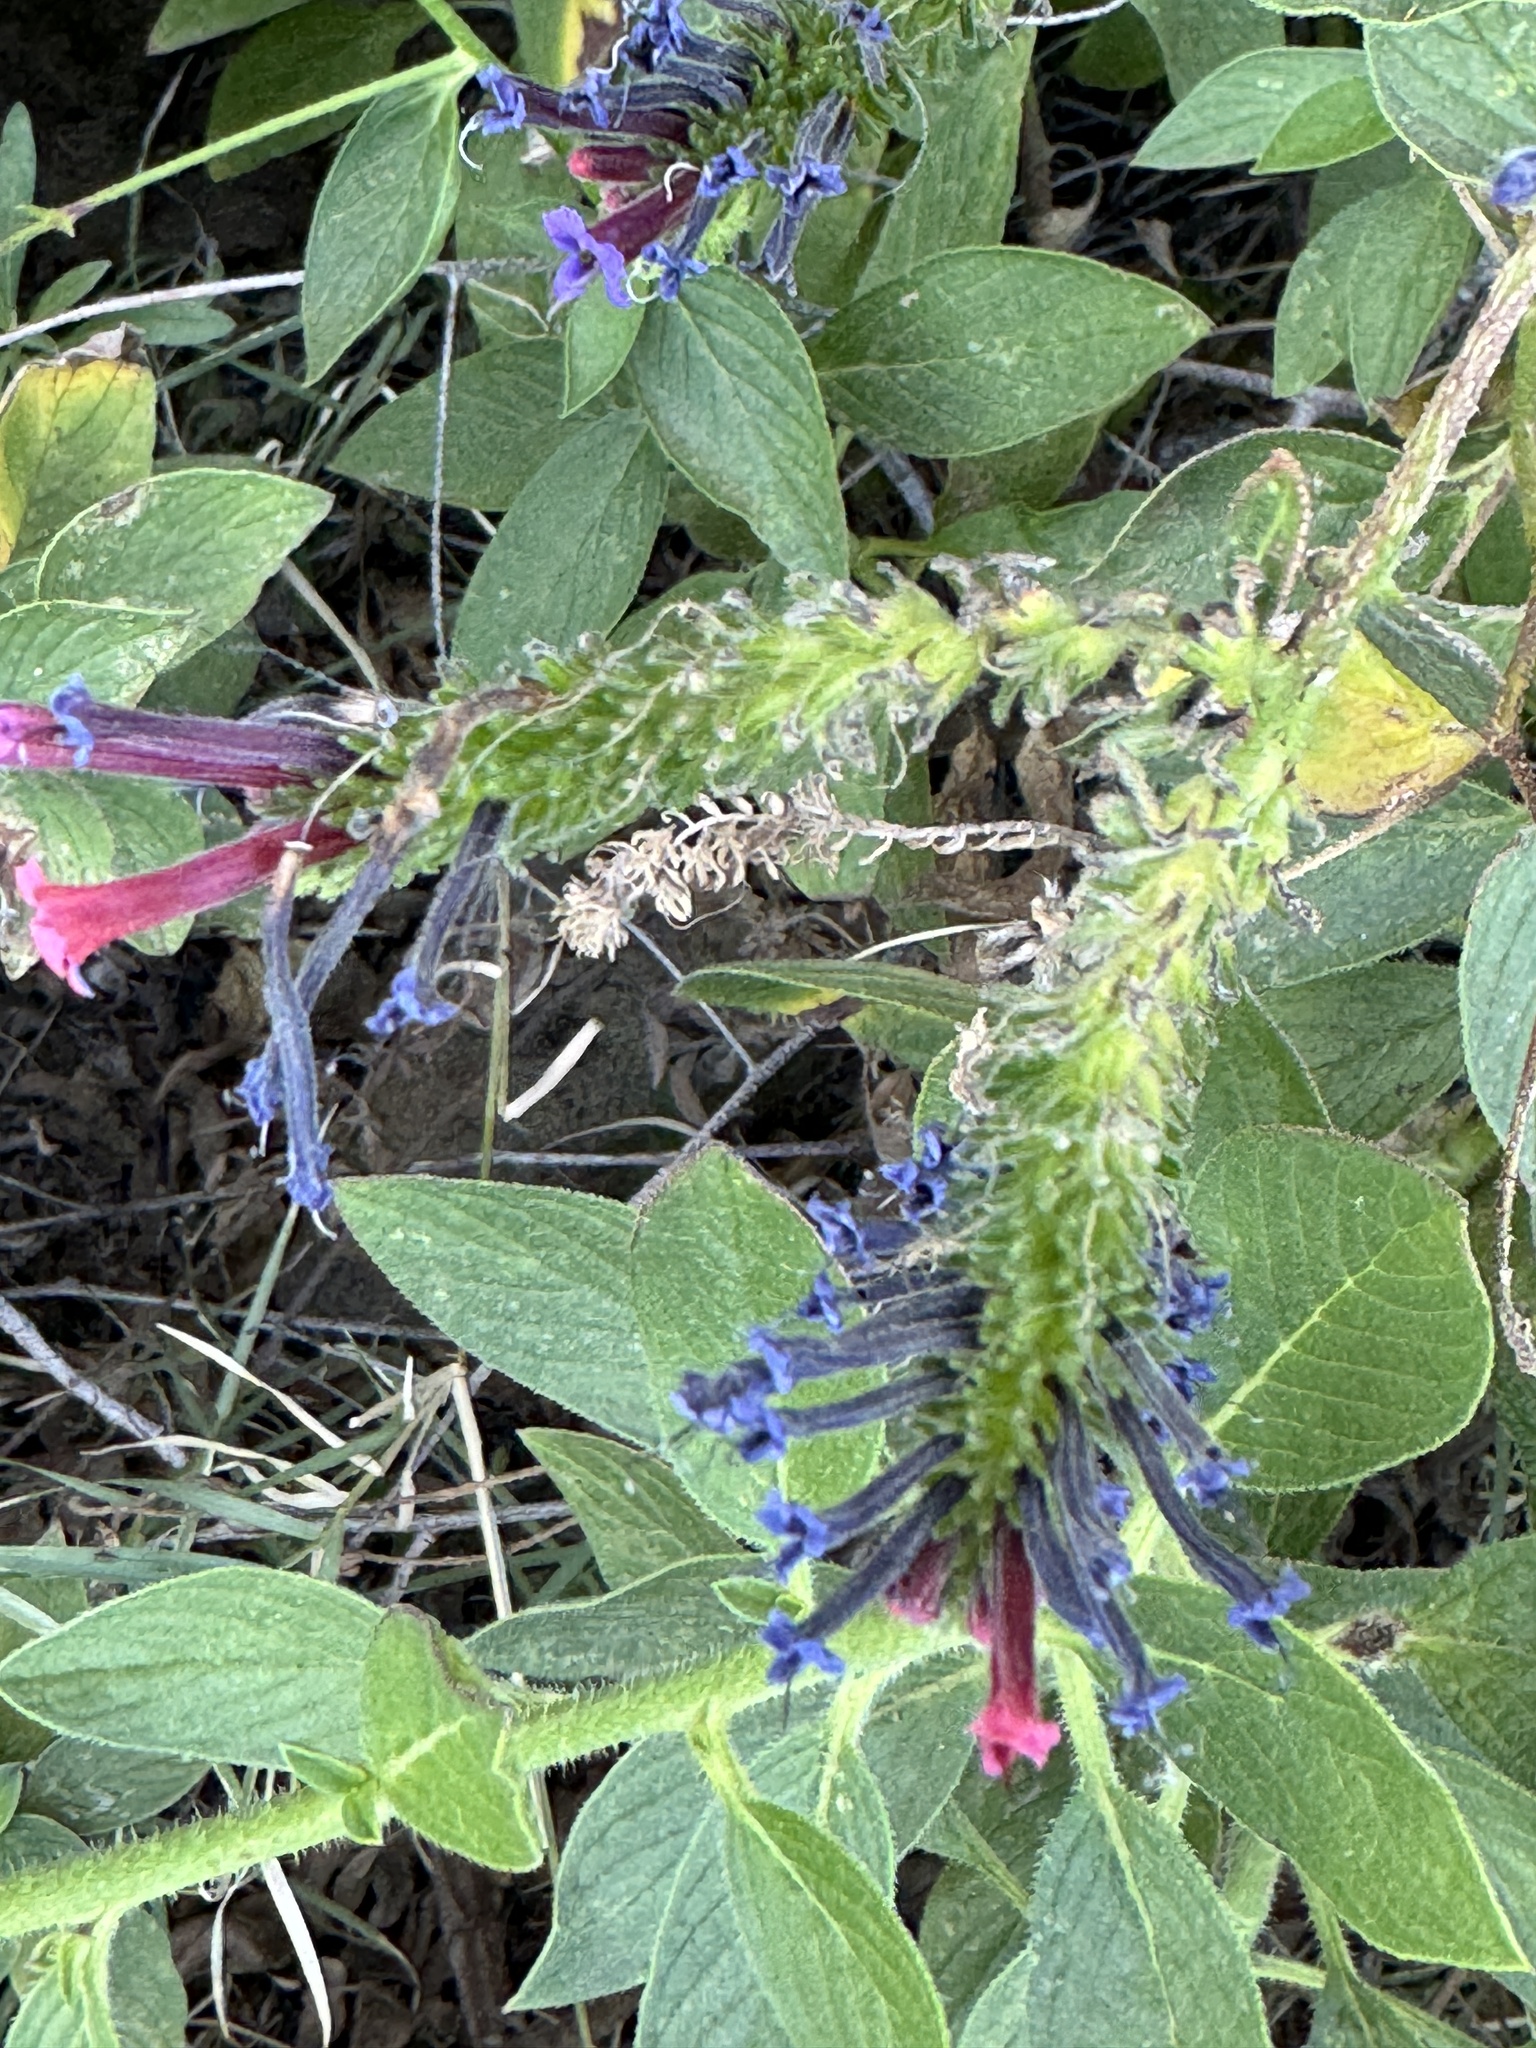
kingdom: Plantae
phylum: Tracheophyta
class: Magnoliopsida
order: Boraginales
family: Boraginaceae
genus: Echium
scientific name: Echium stenosiphon
